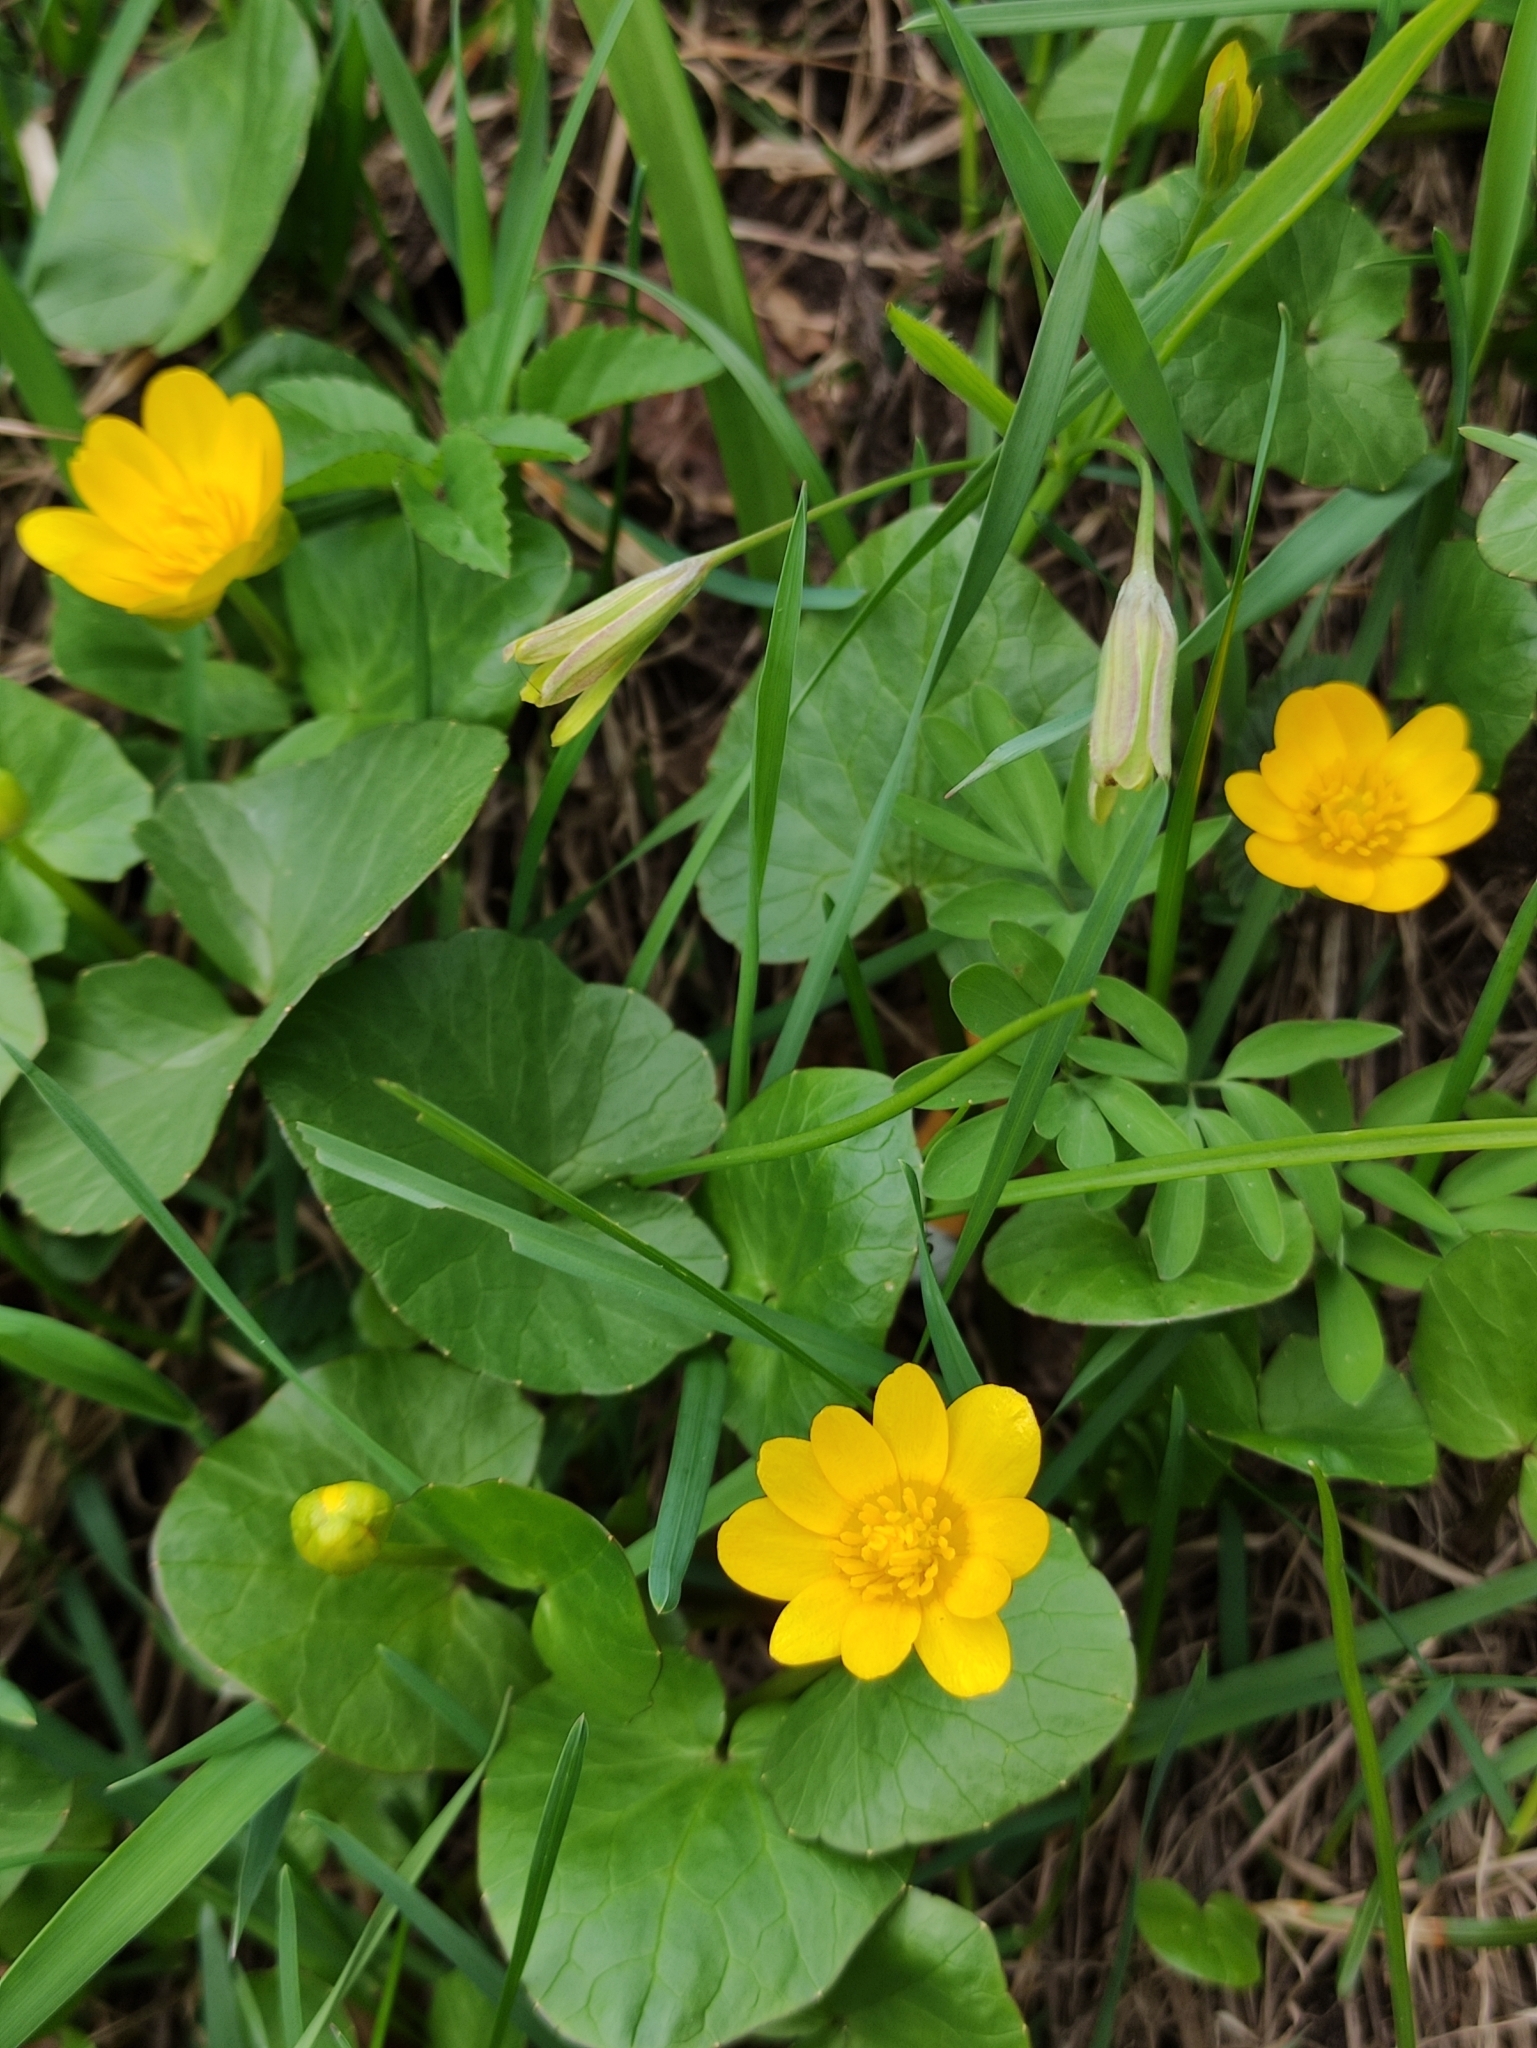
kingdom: Plantae
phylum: Tracheophyta
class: Magnoliopsida
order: Ranunculales
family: Ranunculaceae
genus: Ficaria
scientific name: Ficaria verna
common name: Lesser celandine
